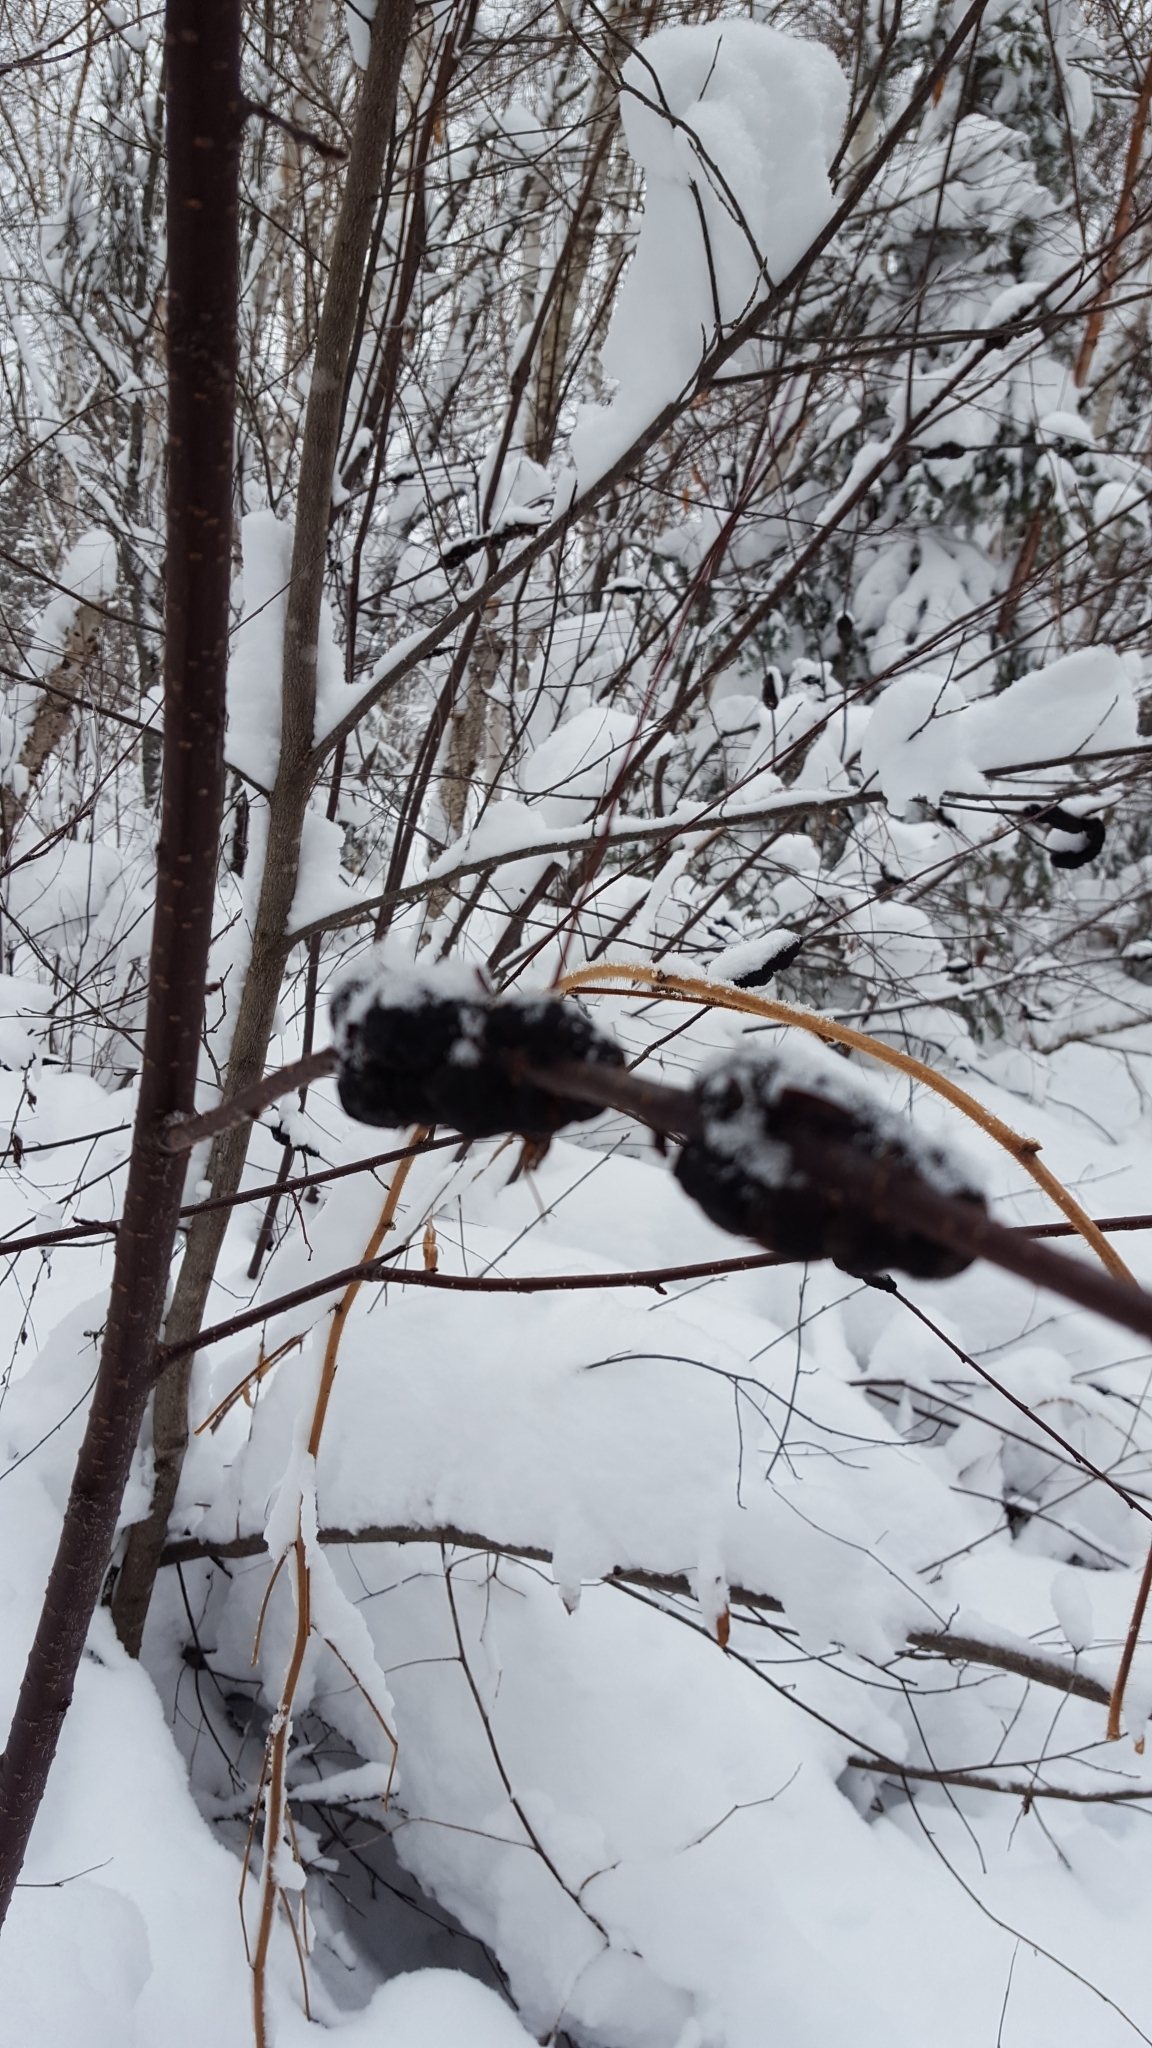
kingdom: Fungi
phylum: Ascomycota
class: Dothideomycetes
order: Venturiales
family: Venturiaceae
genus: Apiosporina
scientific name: Apiosporina morbosa
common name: Black knot
